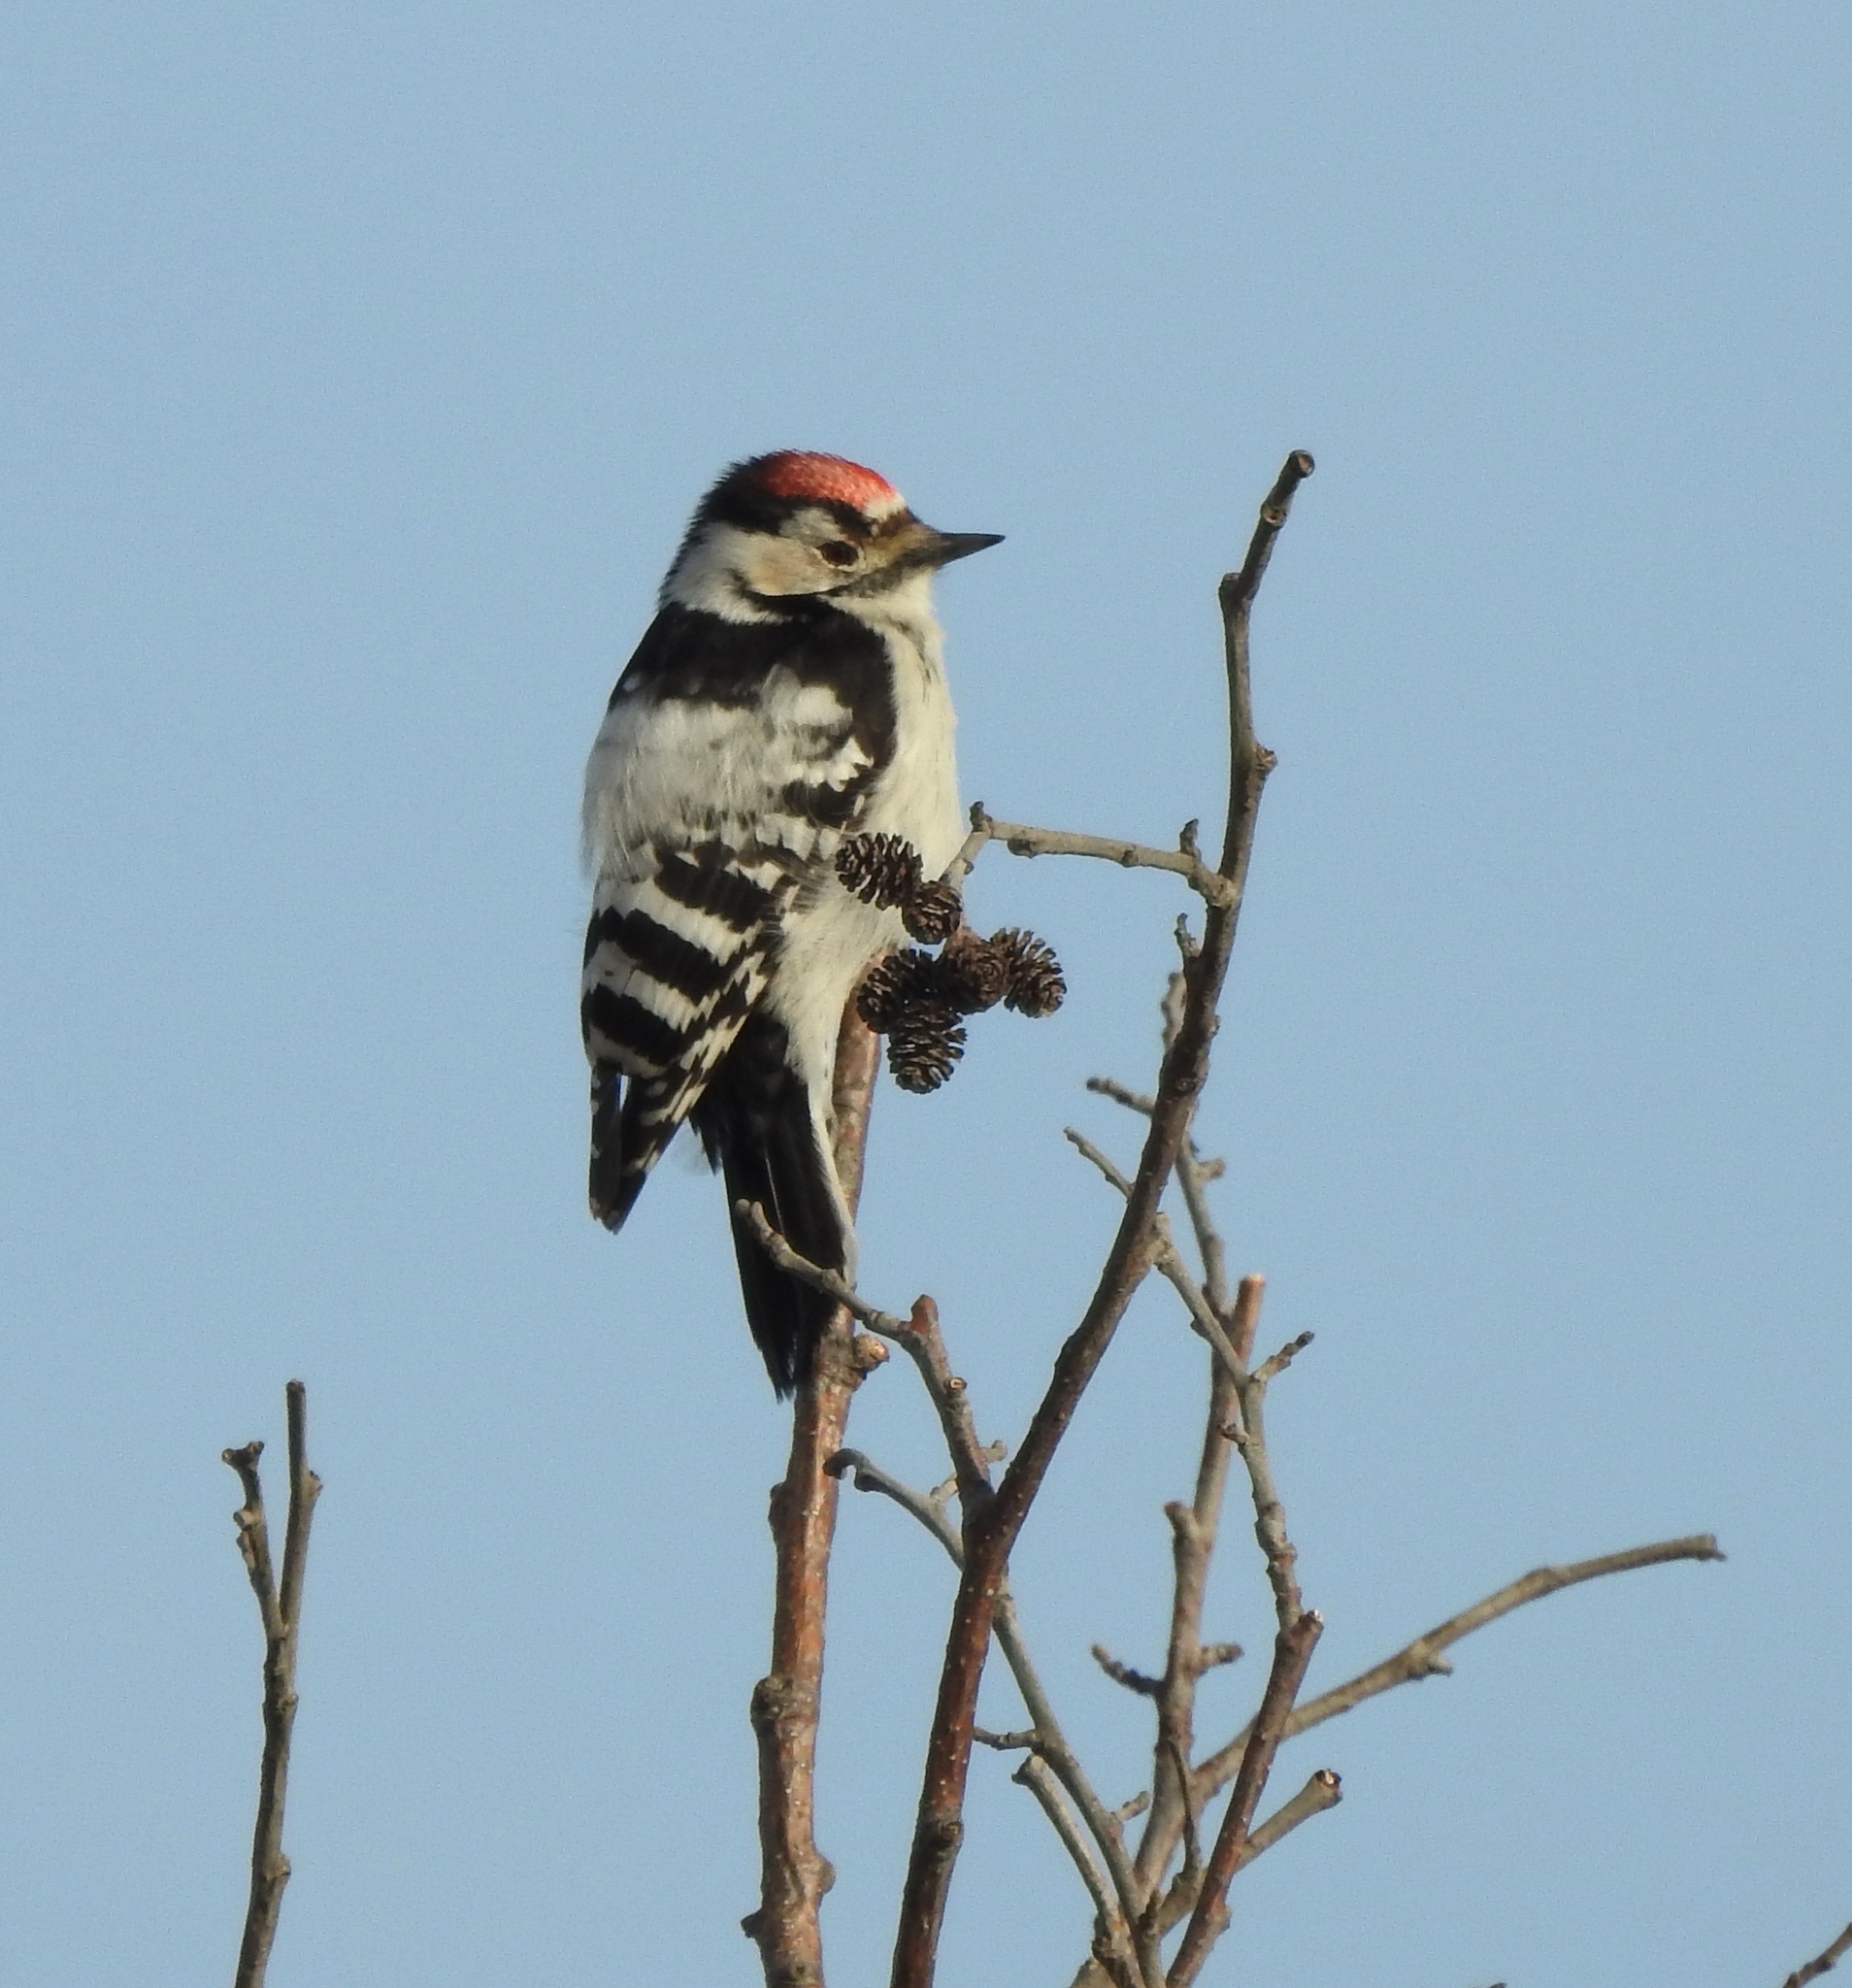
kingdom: Animalia
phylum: Chordata
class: Aves
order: Piciformes
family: Picidae
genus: Dryobates
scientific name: Dryobates minor
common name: Lesser spotted woodpecker
